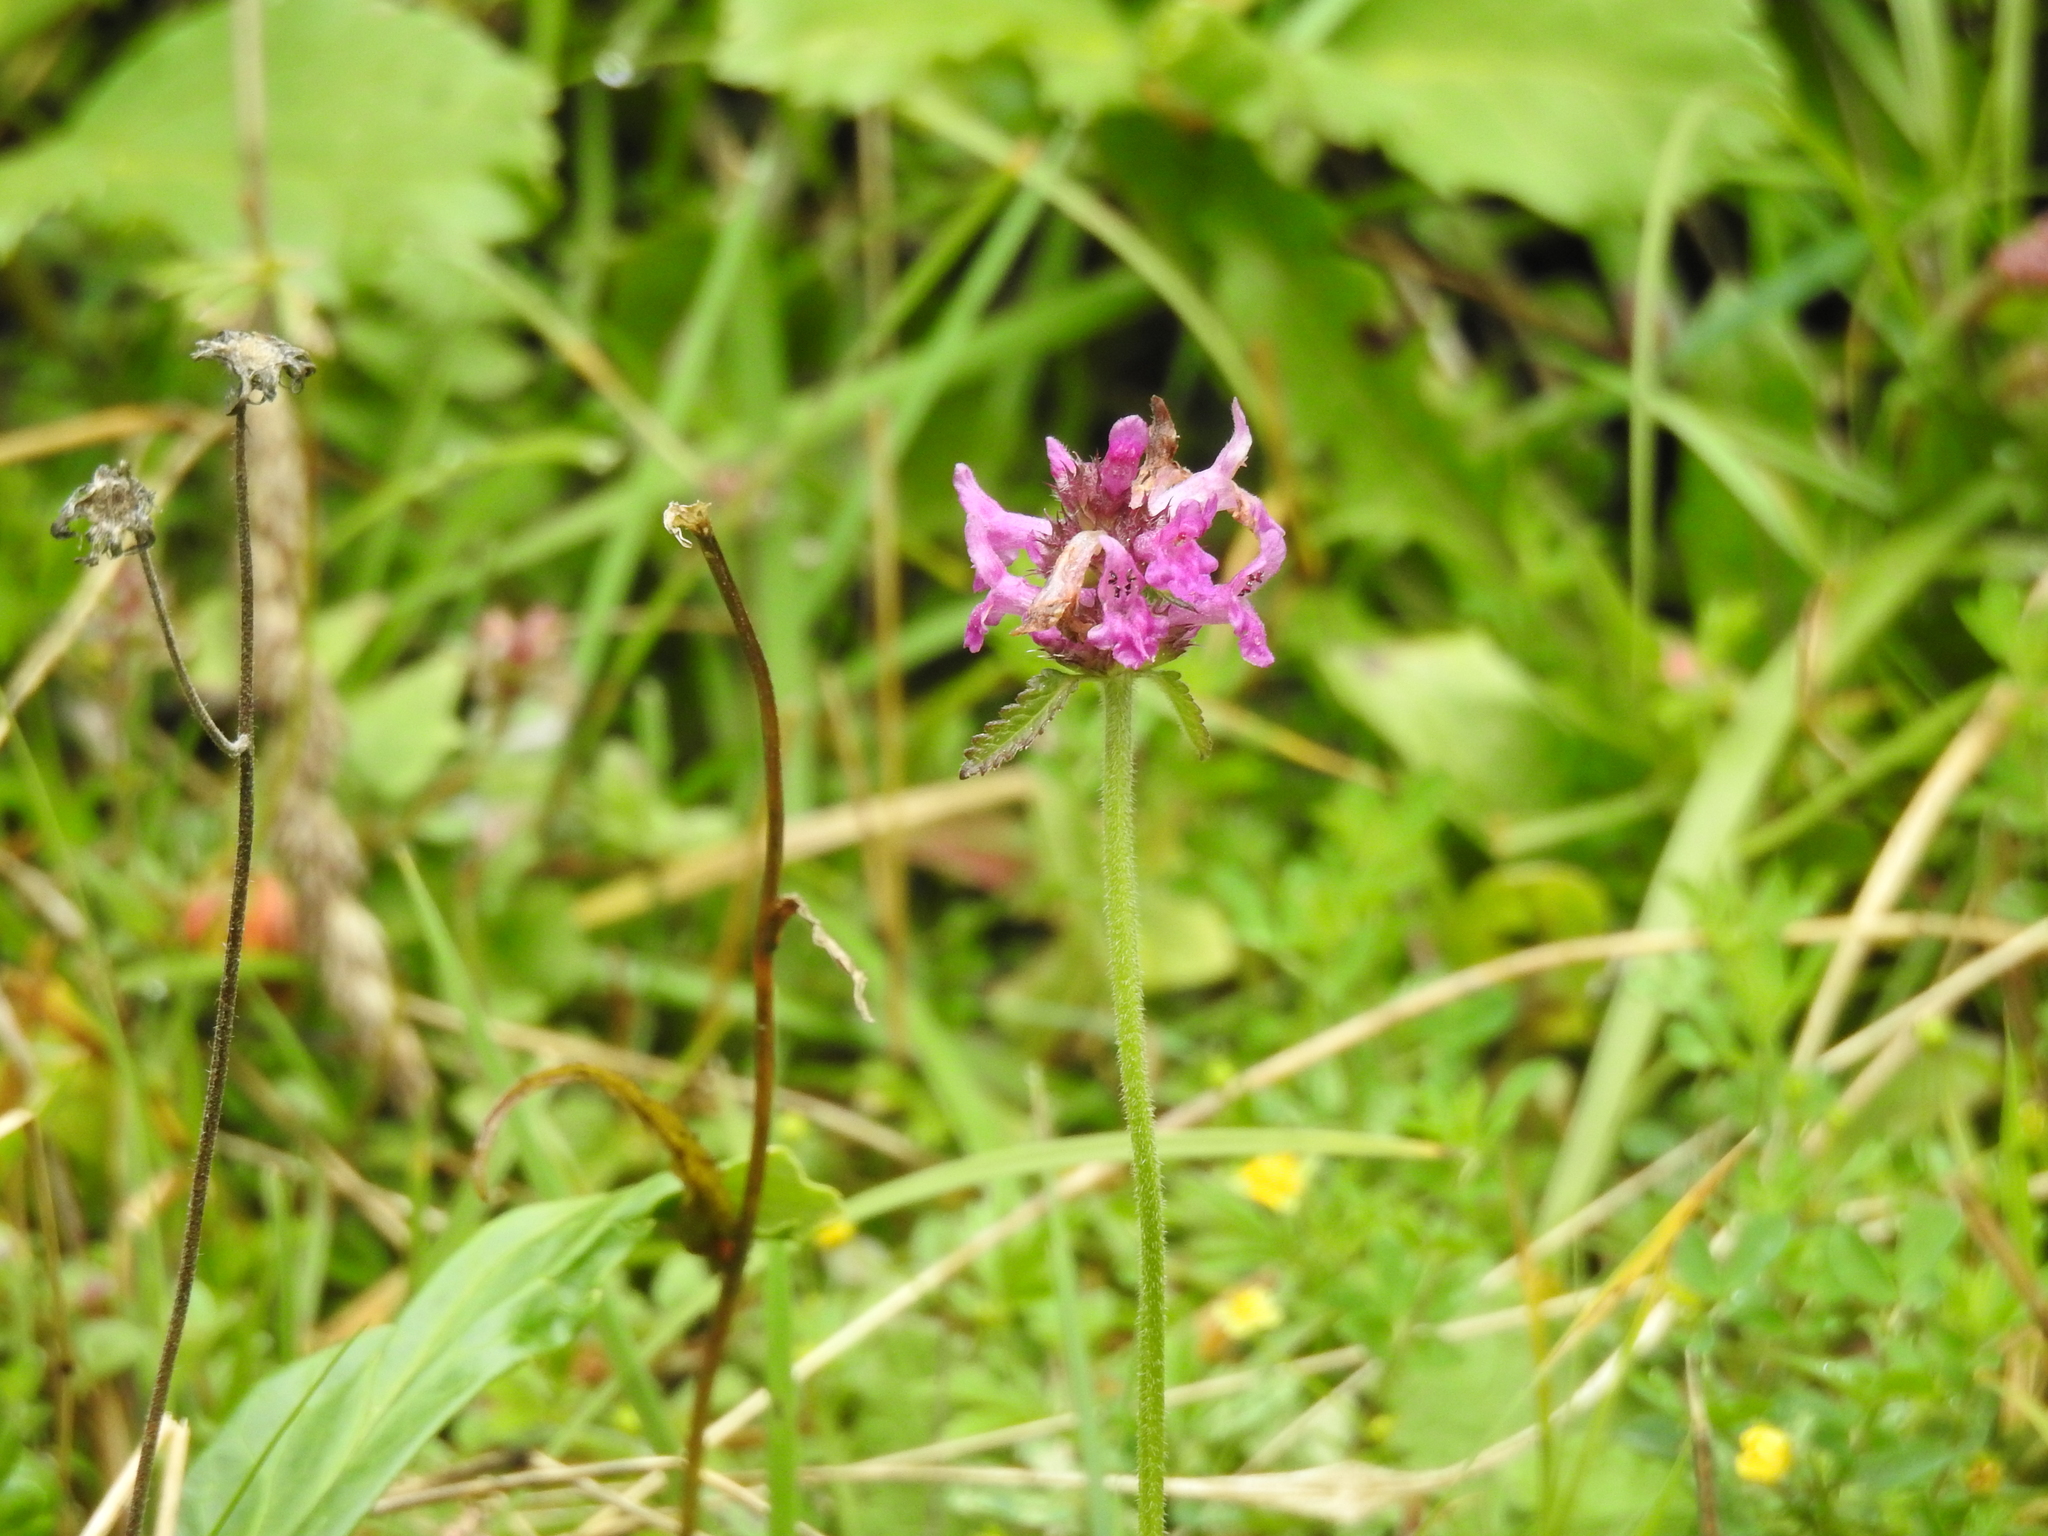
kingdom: Plantae
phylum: Tracheophyta
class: Magnoliopsida
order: Lamiales
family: Lamiaceae
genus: Betonica
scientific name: Betonica officinalis
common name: Bishop's-wort
